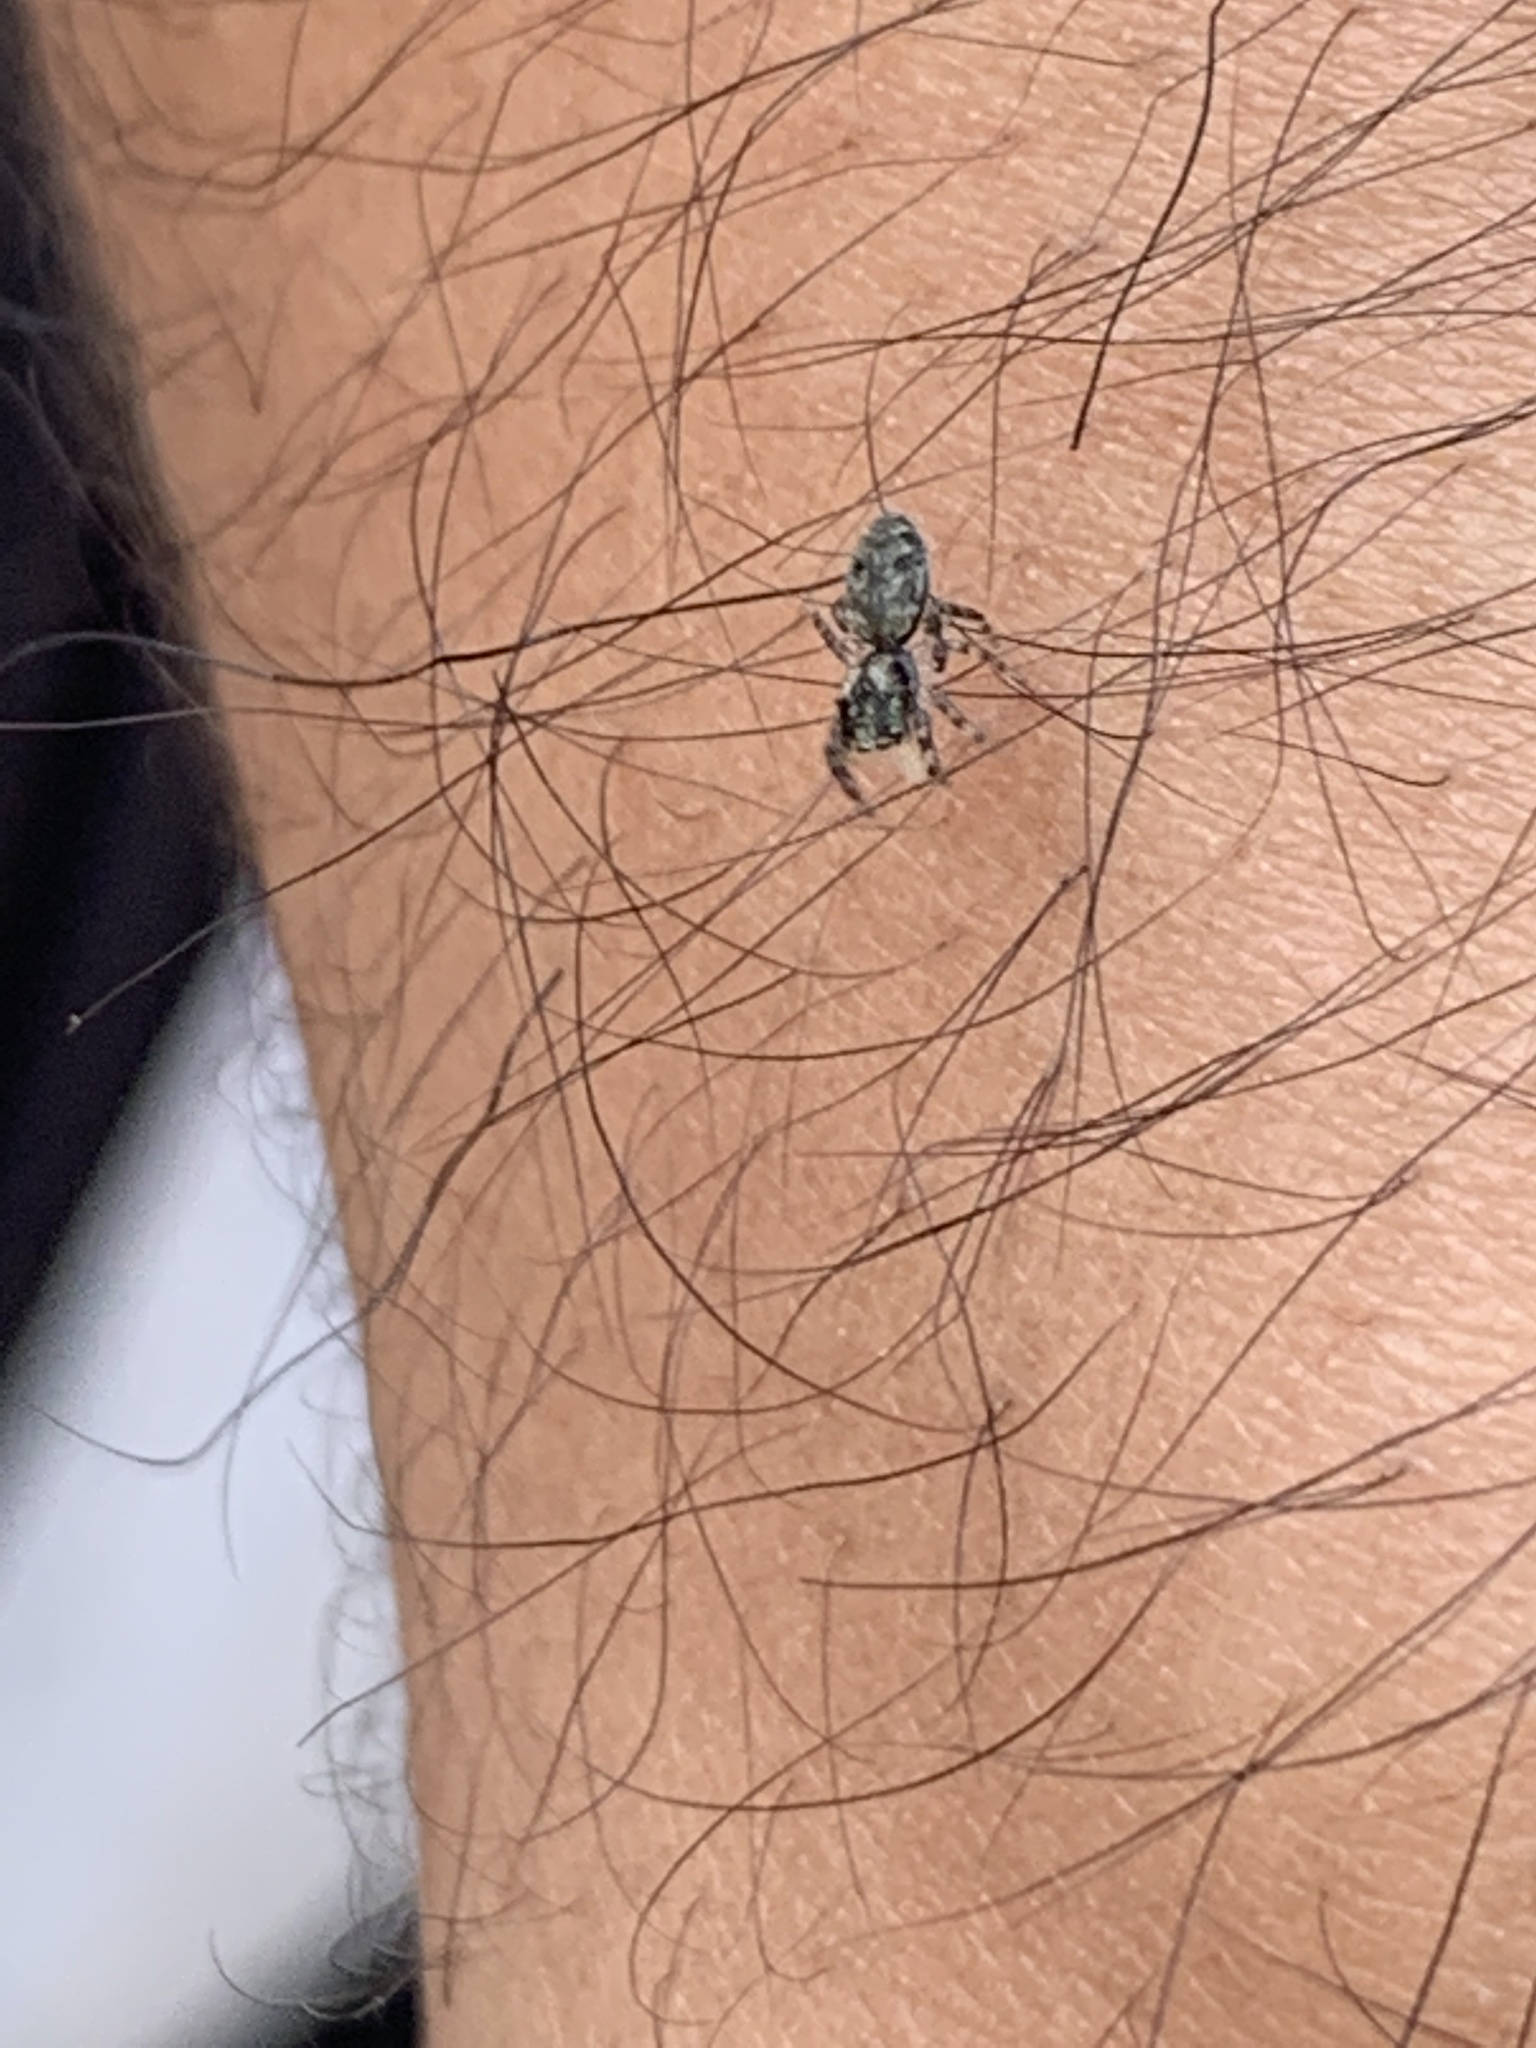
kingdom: Animalia
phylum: Arthropoda
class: Arachnida
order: Araneae
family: Salticidae
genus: Platycryptus
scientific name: Platycryptus undatus
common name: Tan jumping spider
